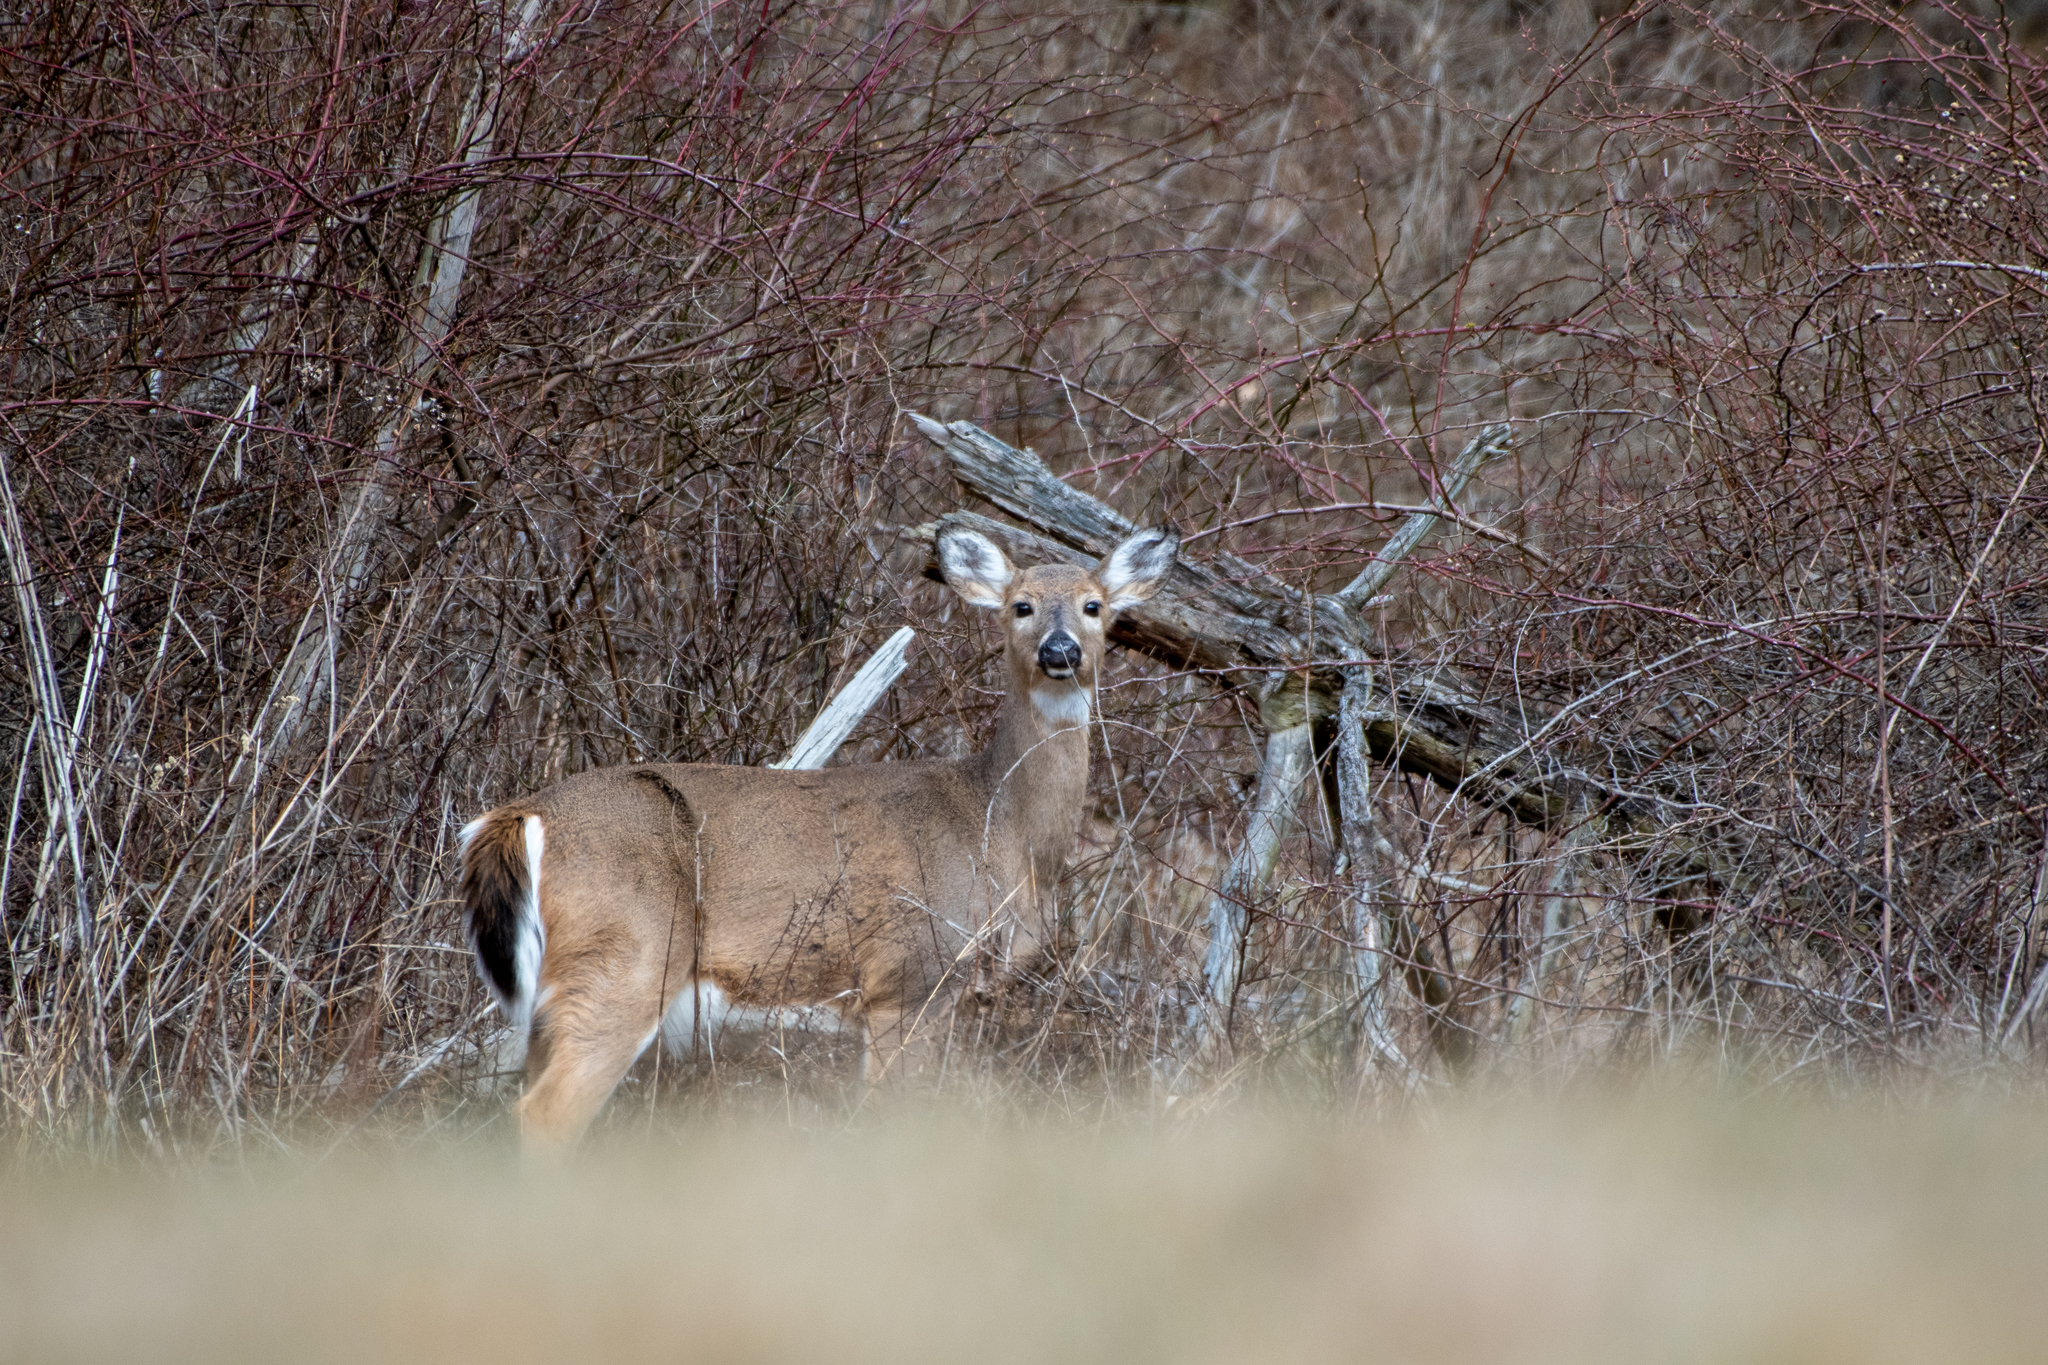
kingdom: Animalia
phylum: Chordata
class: Mammalia
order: Artiodactyla
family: Cervidae
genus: Odocoileus
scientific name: Odocoileus virginianus
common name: White-tailed deer
